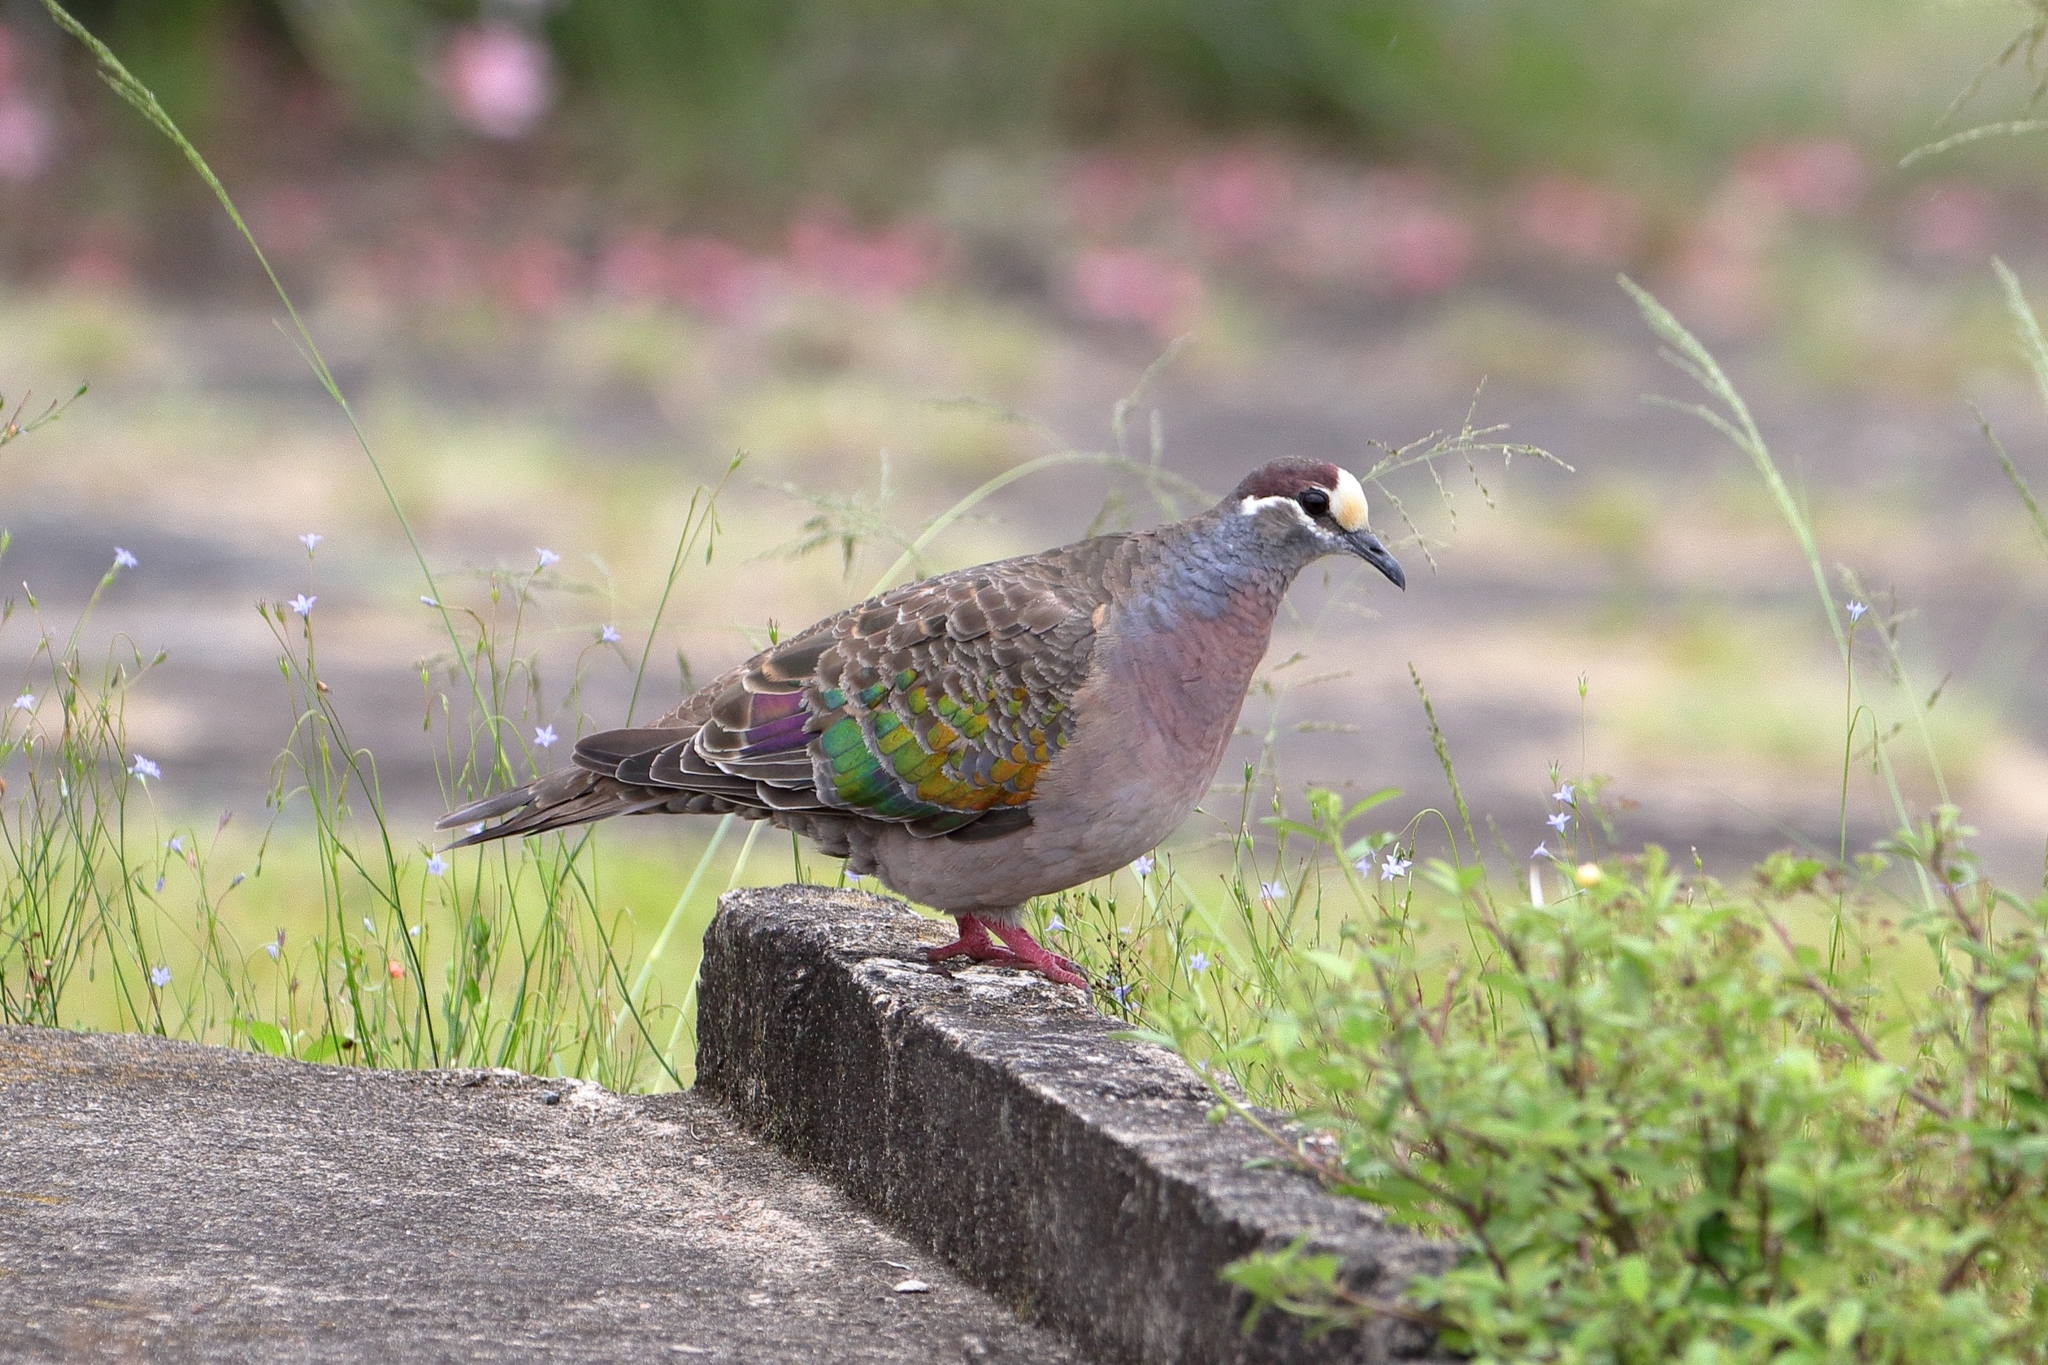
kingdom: Animalia
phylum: Chordata
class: Aves
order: Columbiformes
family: Columbidae
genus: Phaps
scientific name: Phaps chalcoptera
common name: Common bronzewing
